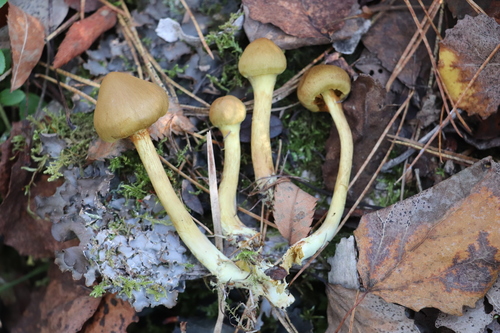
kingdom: Fungi
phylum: Basidiomycota
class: Agaricomycetes
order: Agaricales
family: Cortinariaceae
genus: Cortinarius
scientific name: Cortinarius
